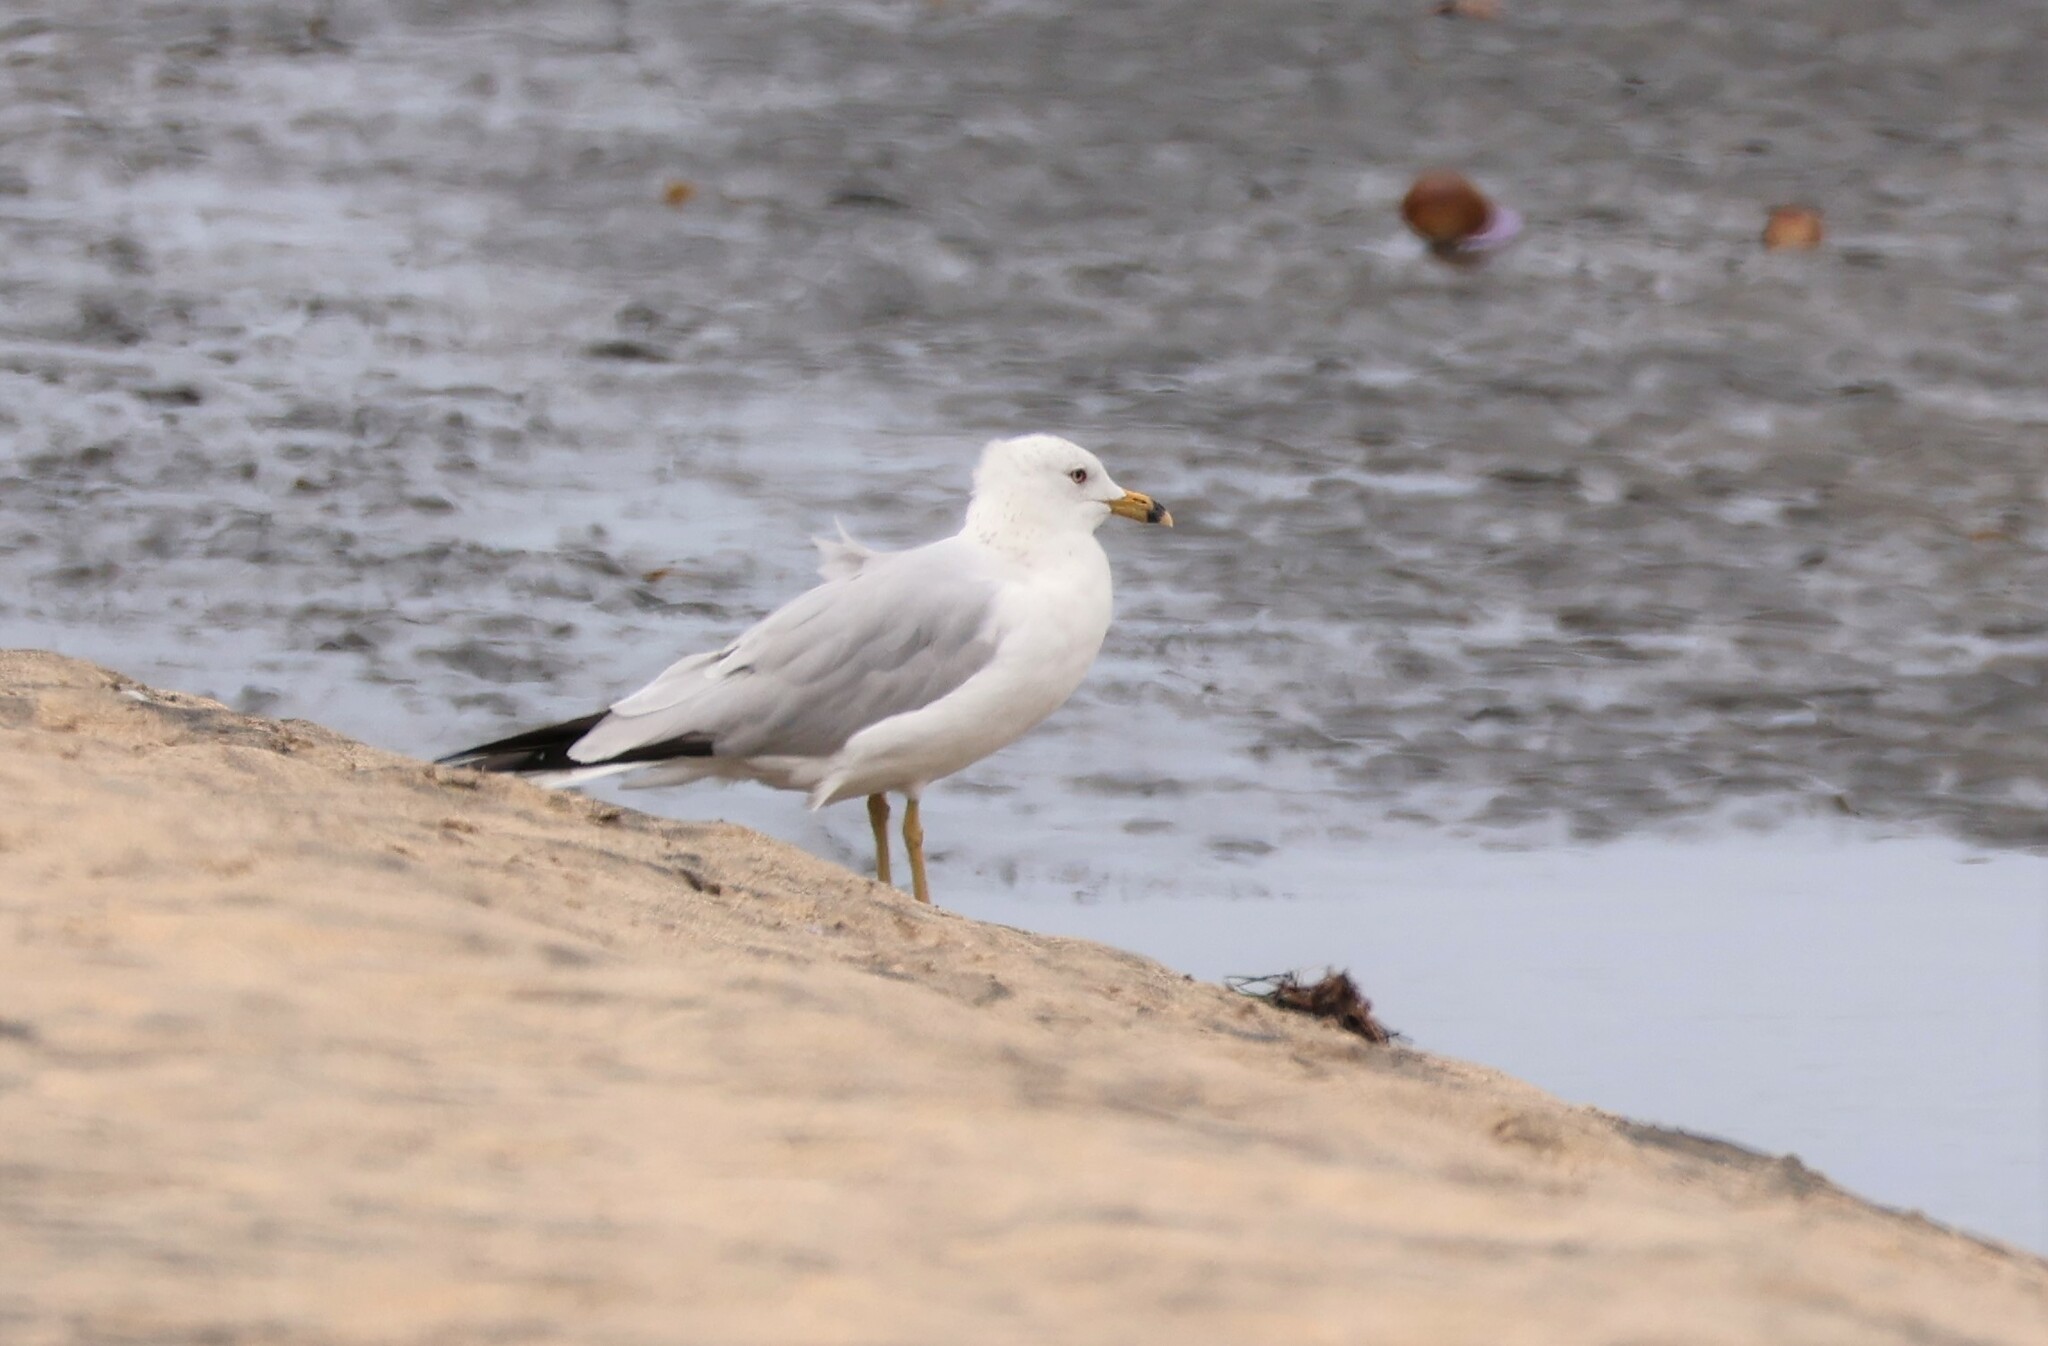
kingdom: Animalia
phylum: Chordata
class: Aves
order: Charadriiformes
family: Laridae
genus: Larus
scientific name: Larus delawarensis
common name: Ring-billed gull
